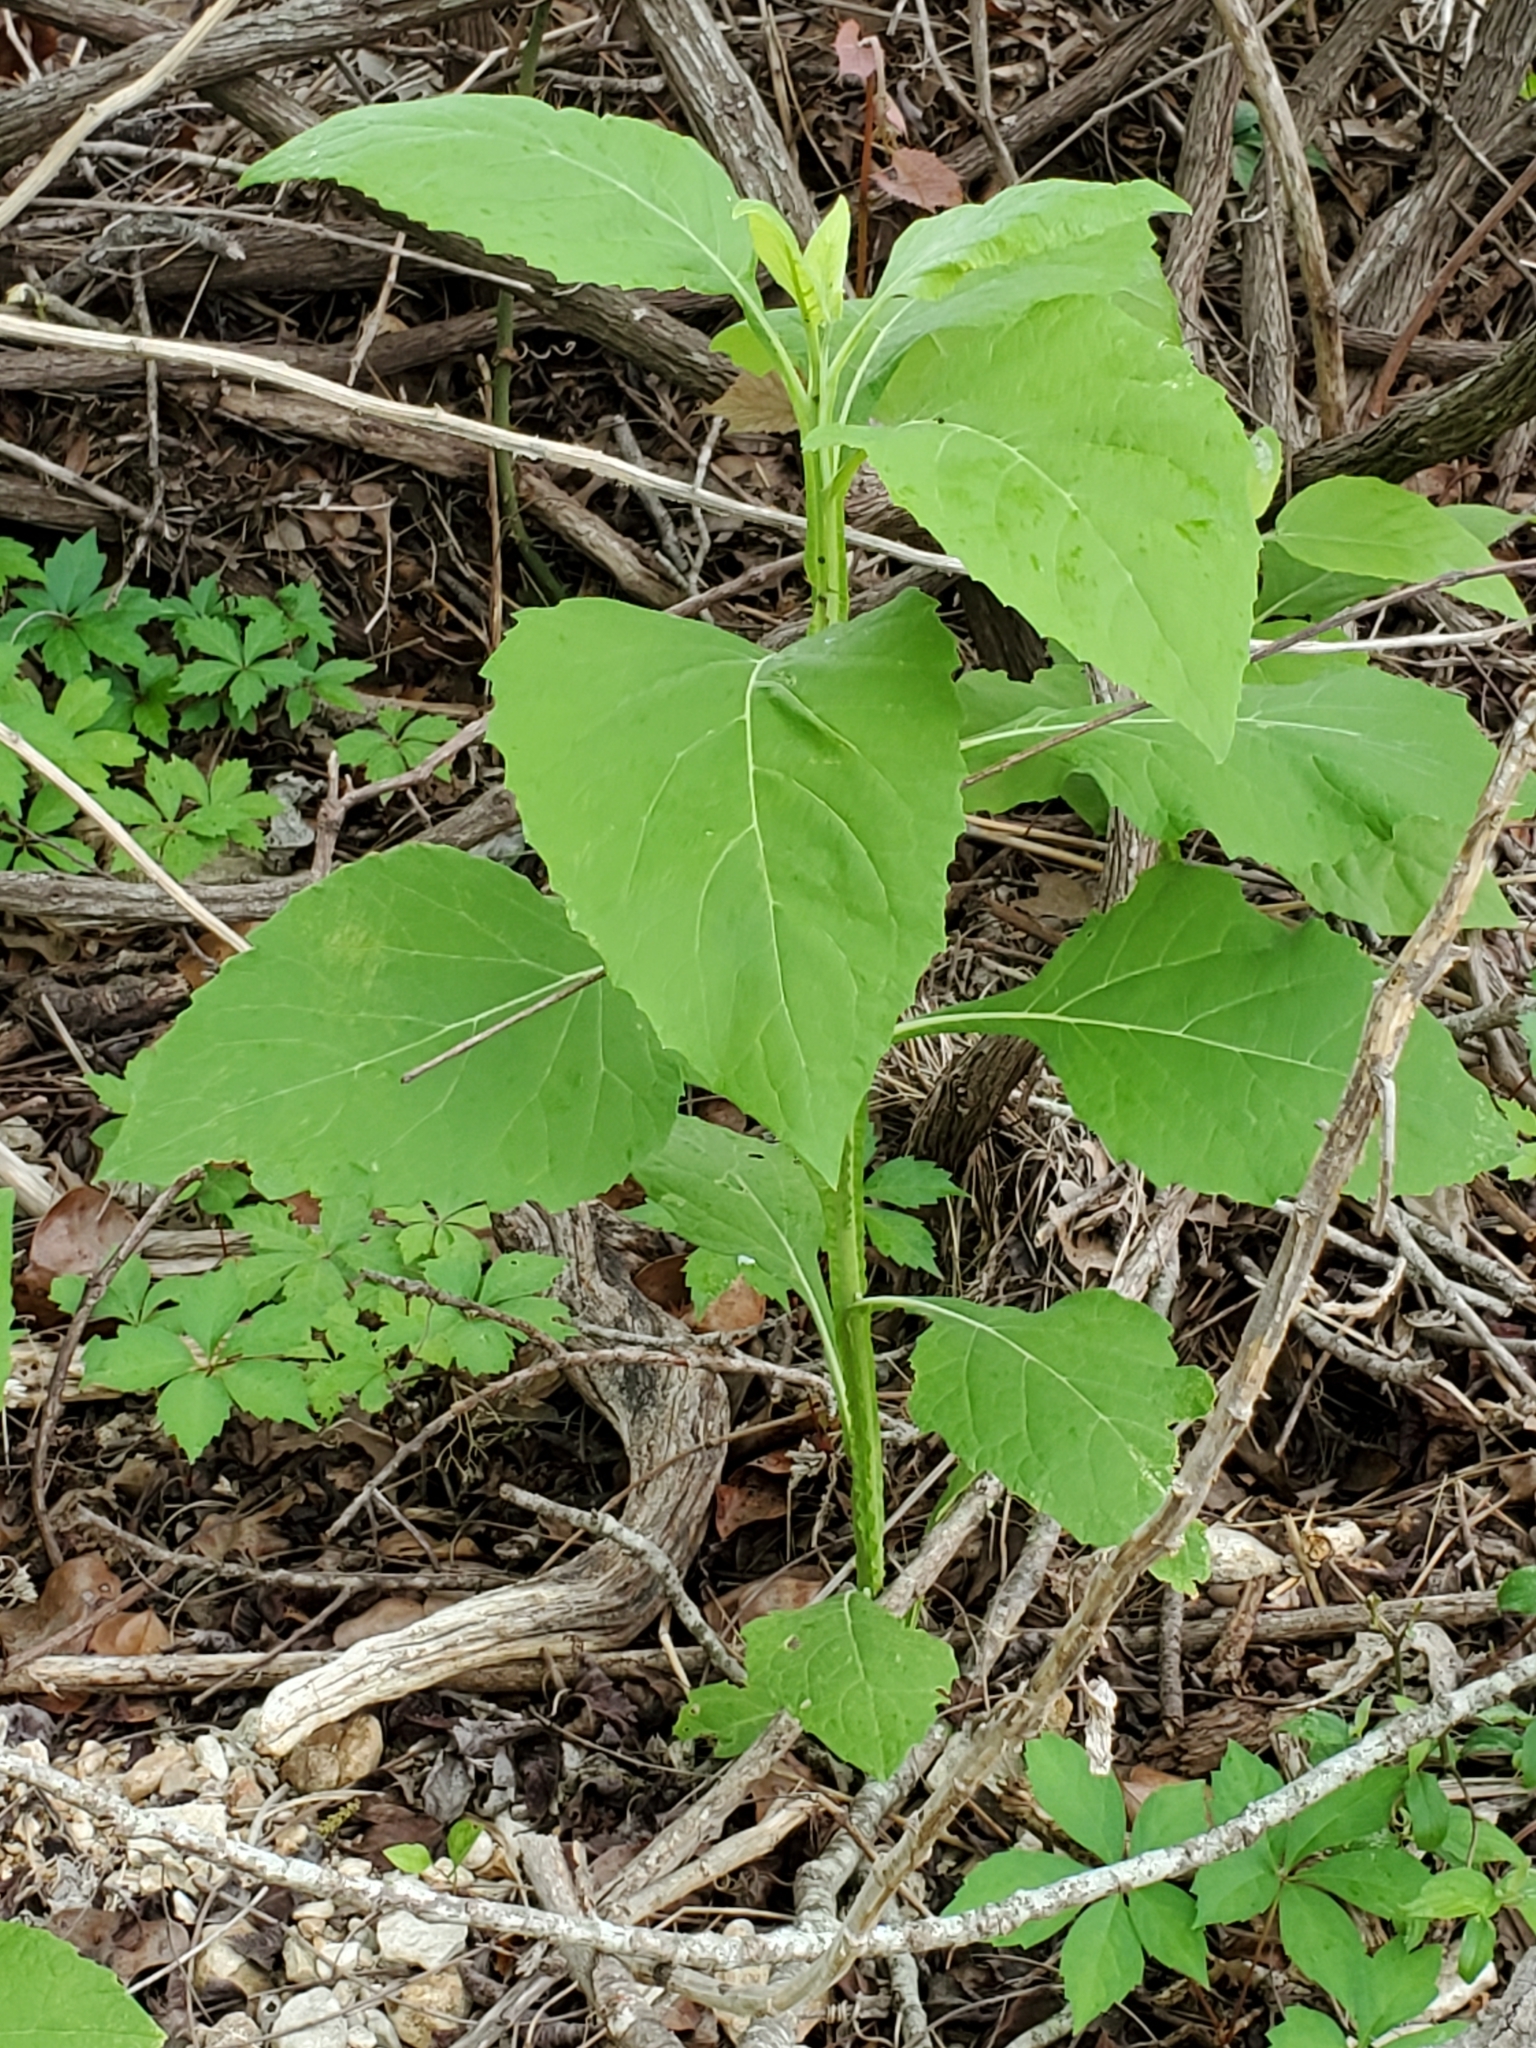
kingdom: Plantae
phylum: Tracheophyta
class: Magnoliopsida
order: Asterales
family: Asteraceae
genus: Verbesina
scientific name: Verbesina virginica
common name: Frostweed
